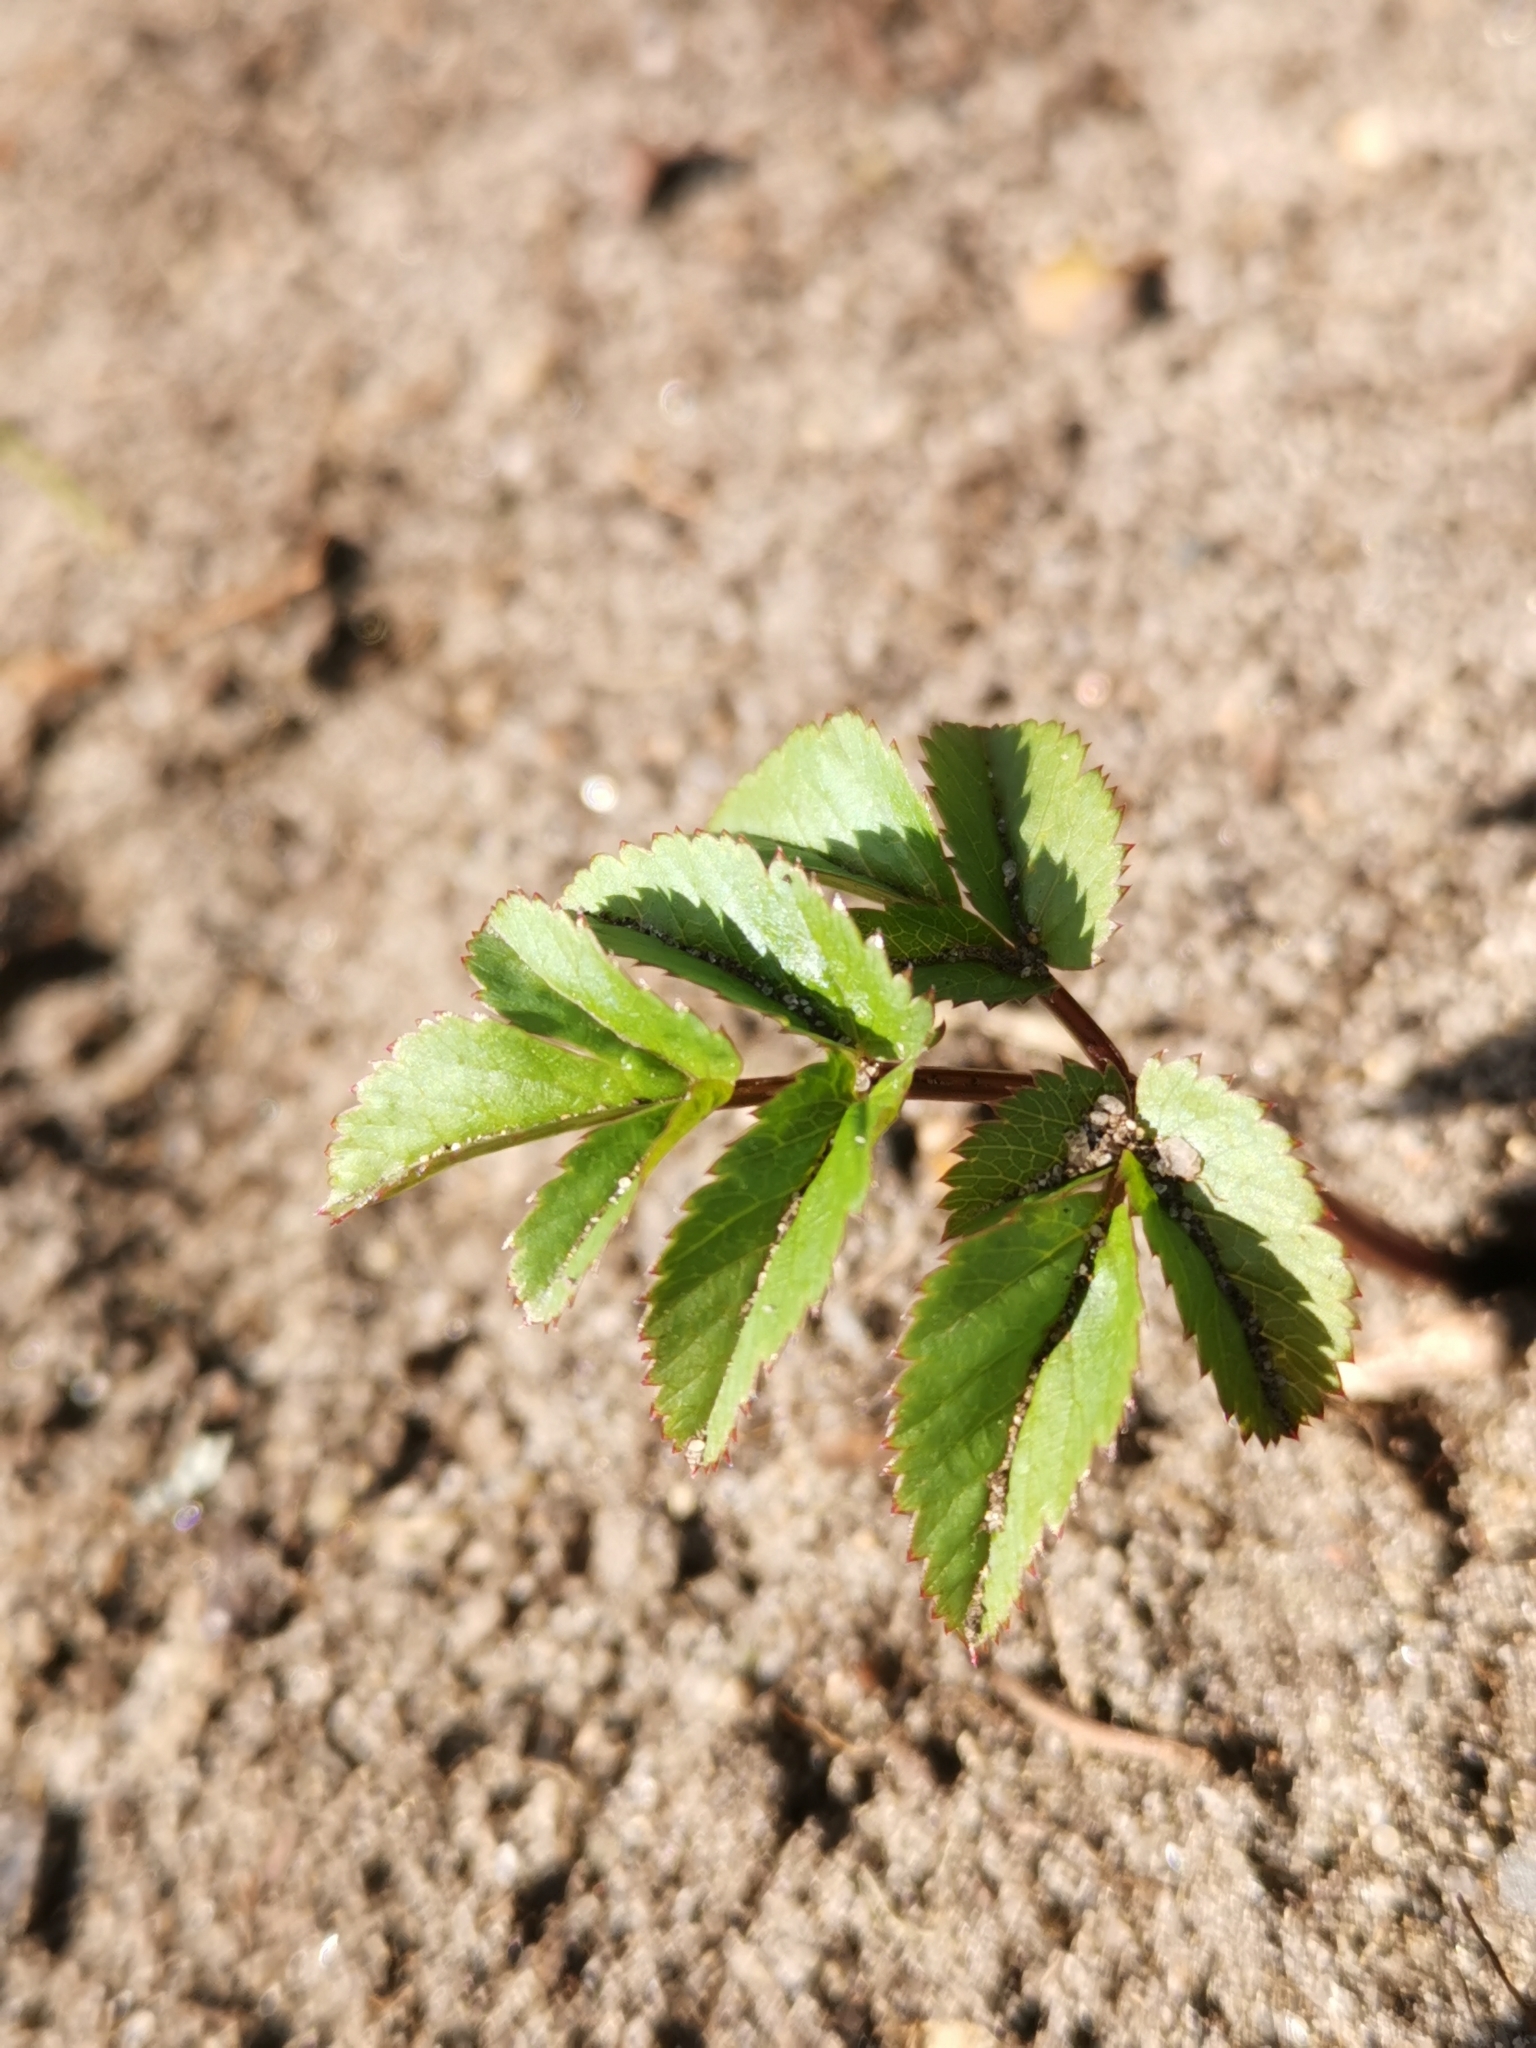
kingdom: Plantae
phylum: Tracheophyta
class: Magnoliopsida
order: Apiales
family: Apiaceae
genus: Aegopodium
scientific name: Aegopodium podagraria
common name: Ground-elder
